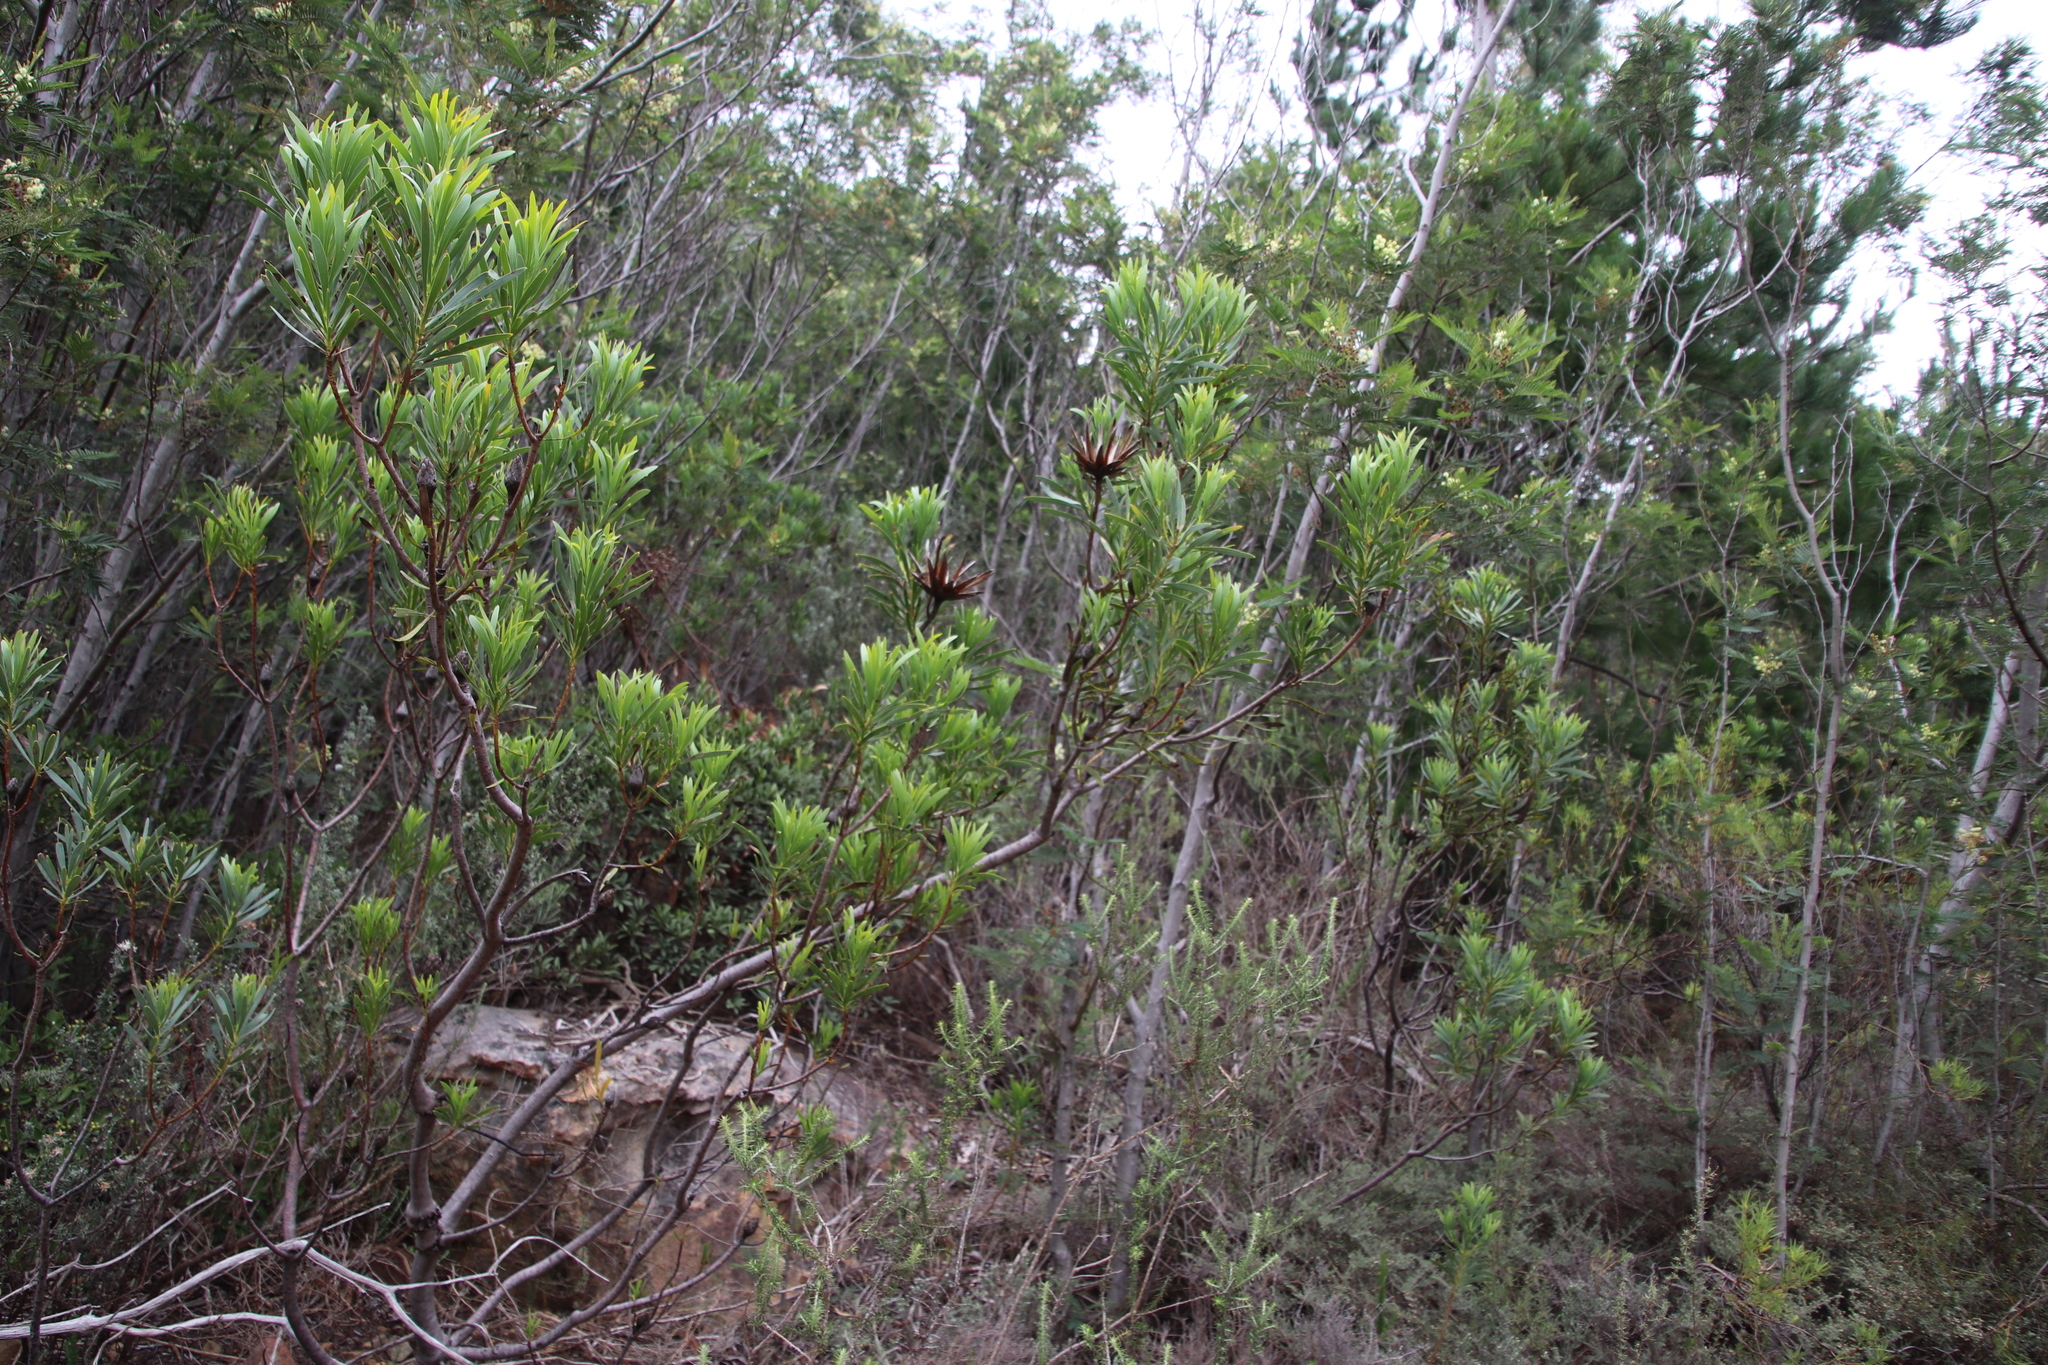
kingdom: Plantae
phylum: Tracheophyta
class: Magnoliopsida
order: Proteales
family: Proteaceae
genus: Protea
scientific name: Protea repens
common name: Sugarbush
